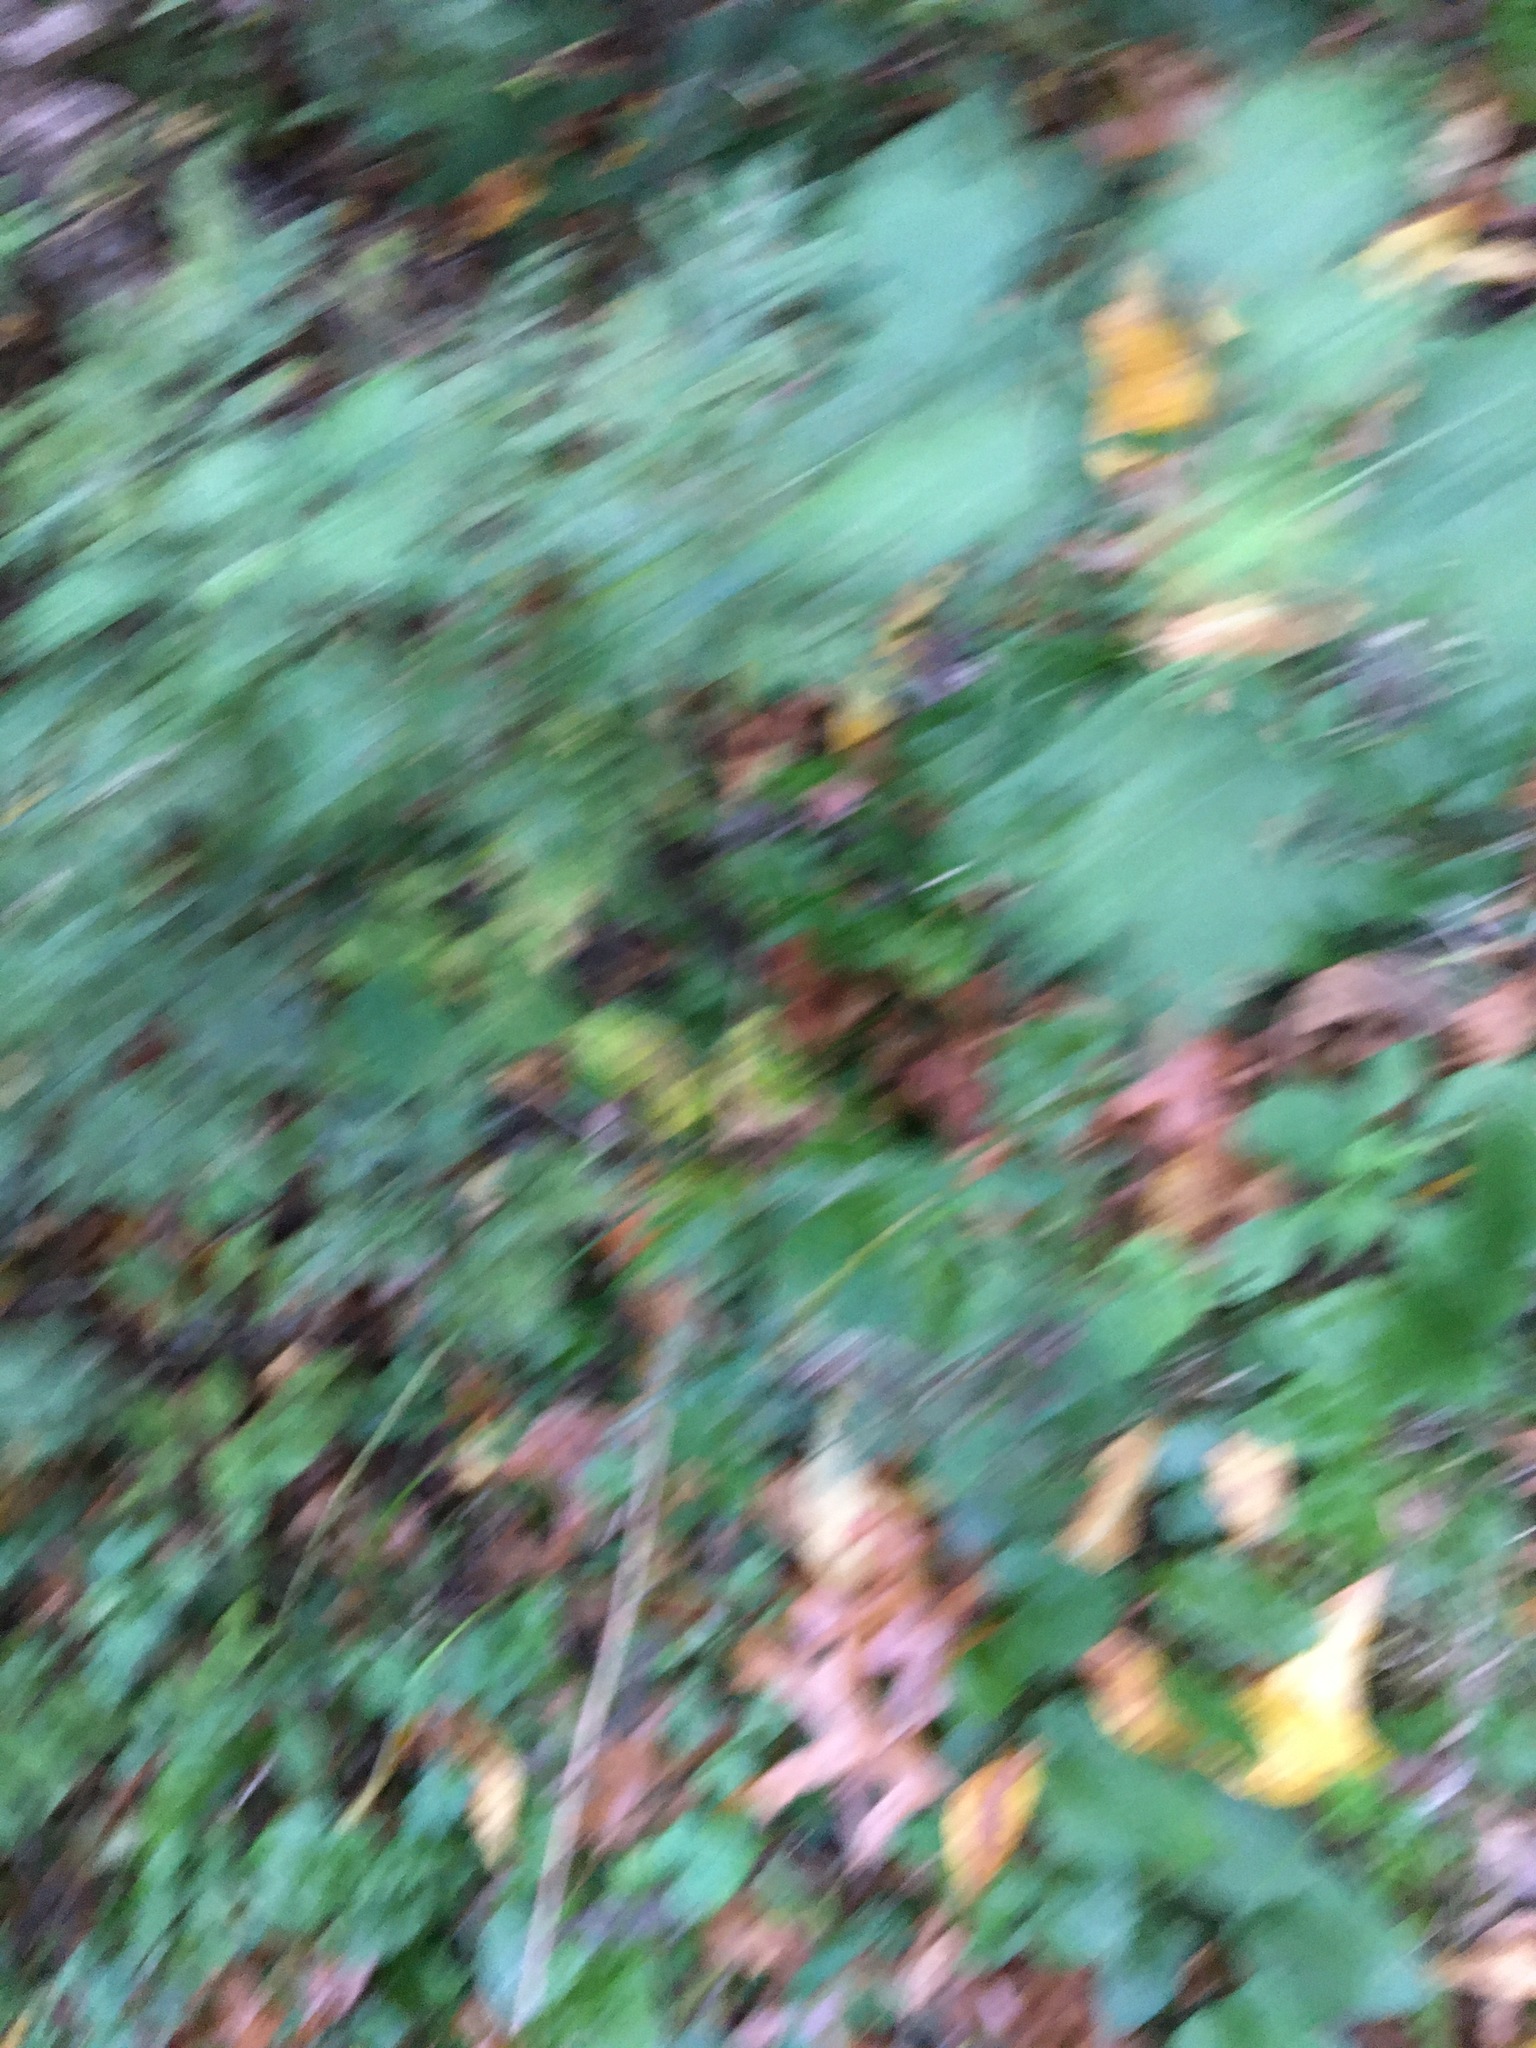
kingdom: Plantae
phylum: Tracheophyta
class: Magnoliopsida
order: Asterales
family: Asteraceae
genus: Artemisia
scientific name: Artemisia vulgaris
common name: Mugwort
